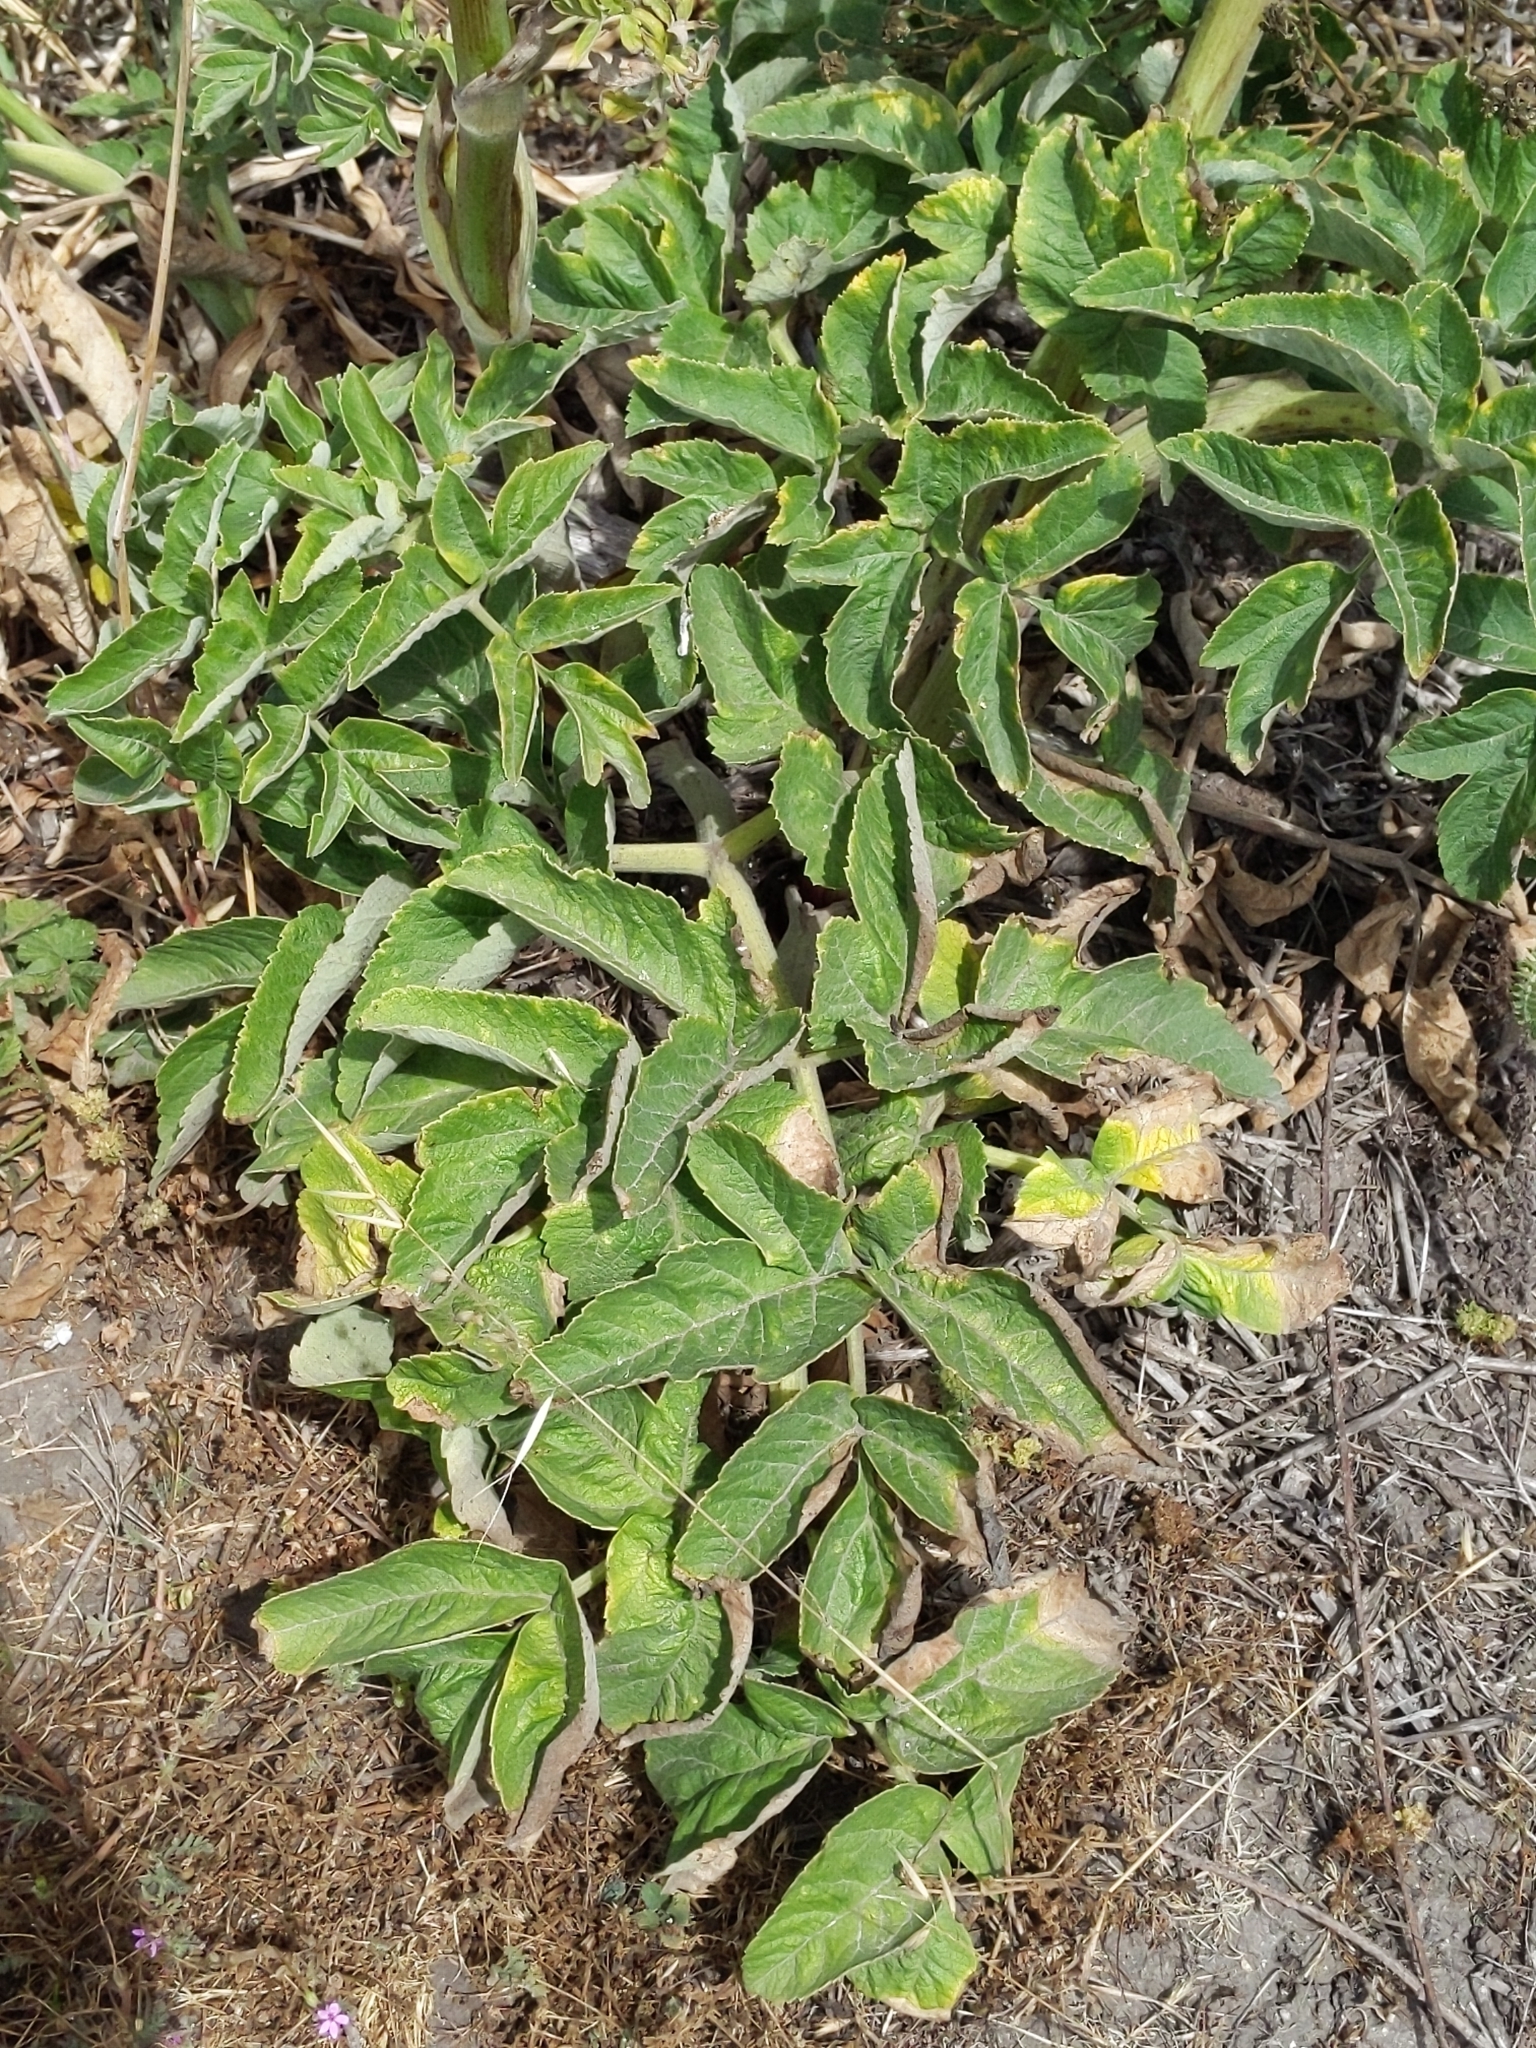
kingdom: Plantae
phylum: Tracheophyta
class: Magnoliopsida
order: Apiales
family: Apiaceae
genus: Angelica
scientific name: Angelica hendersonii
